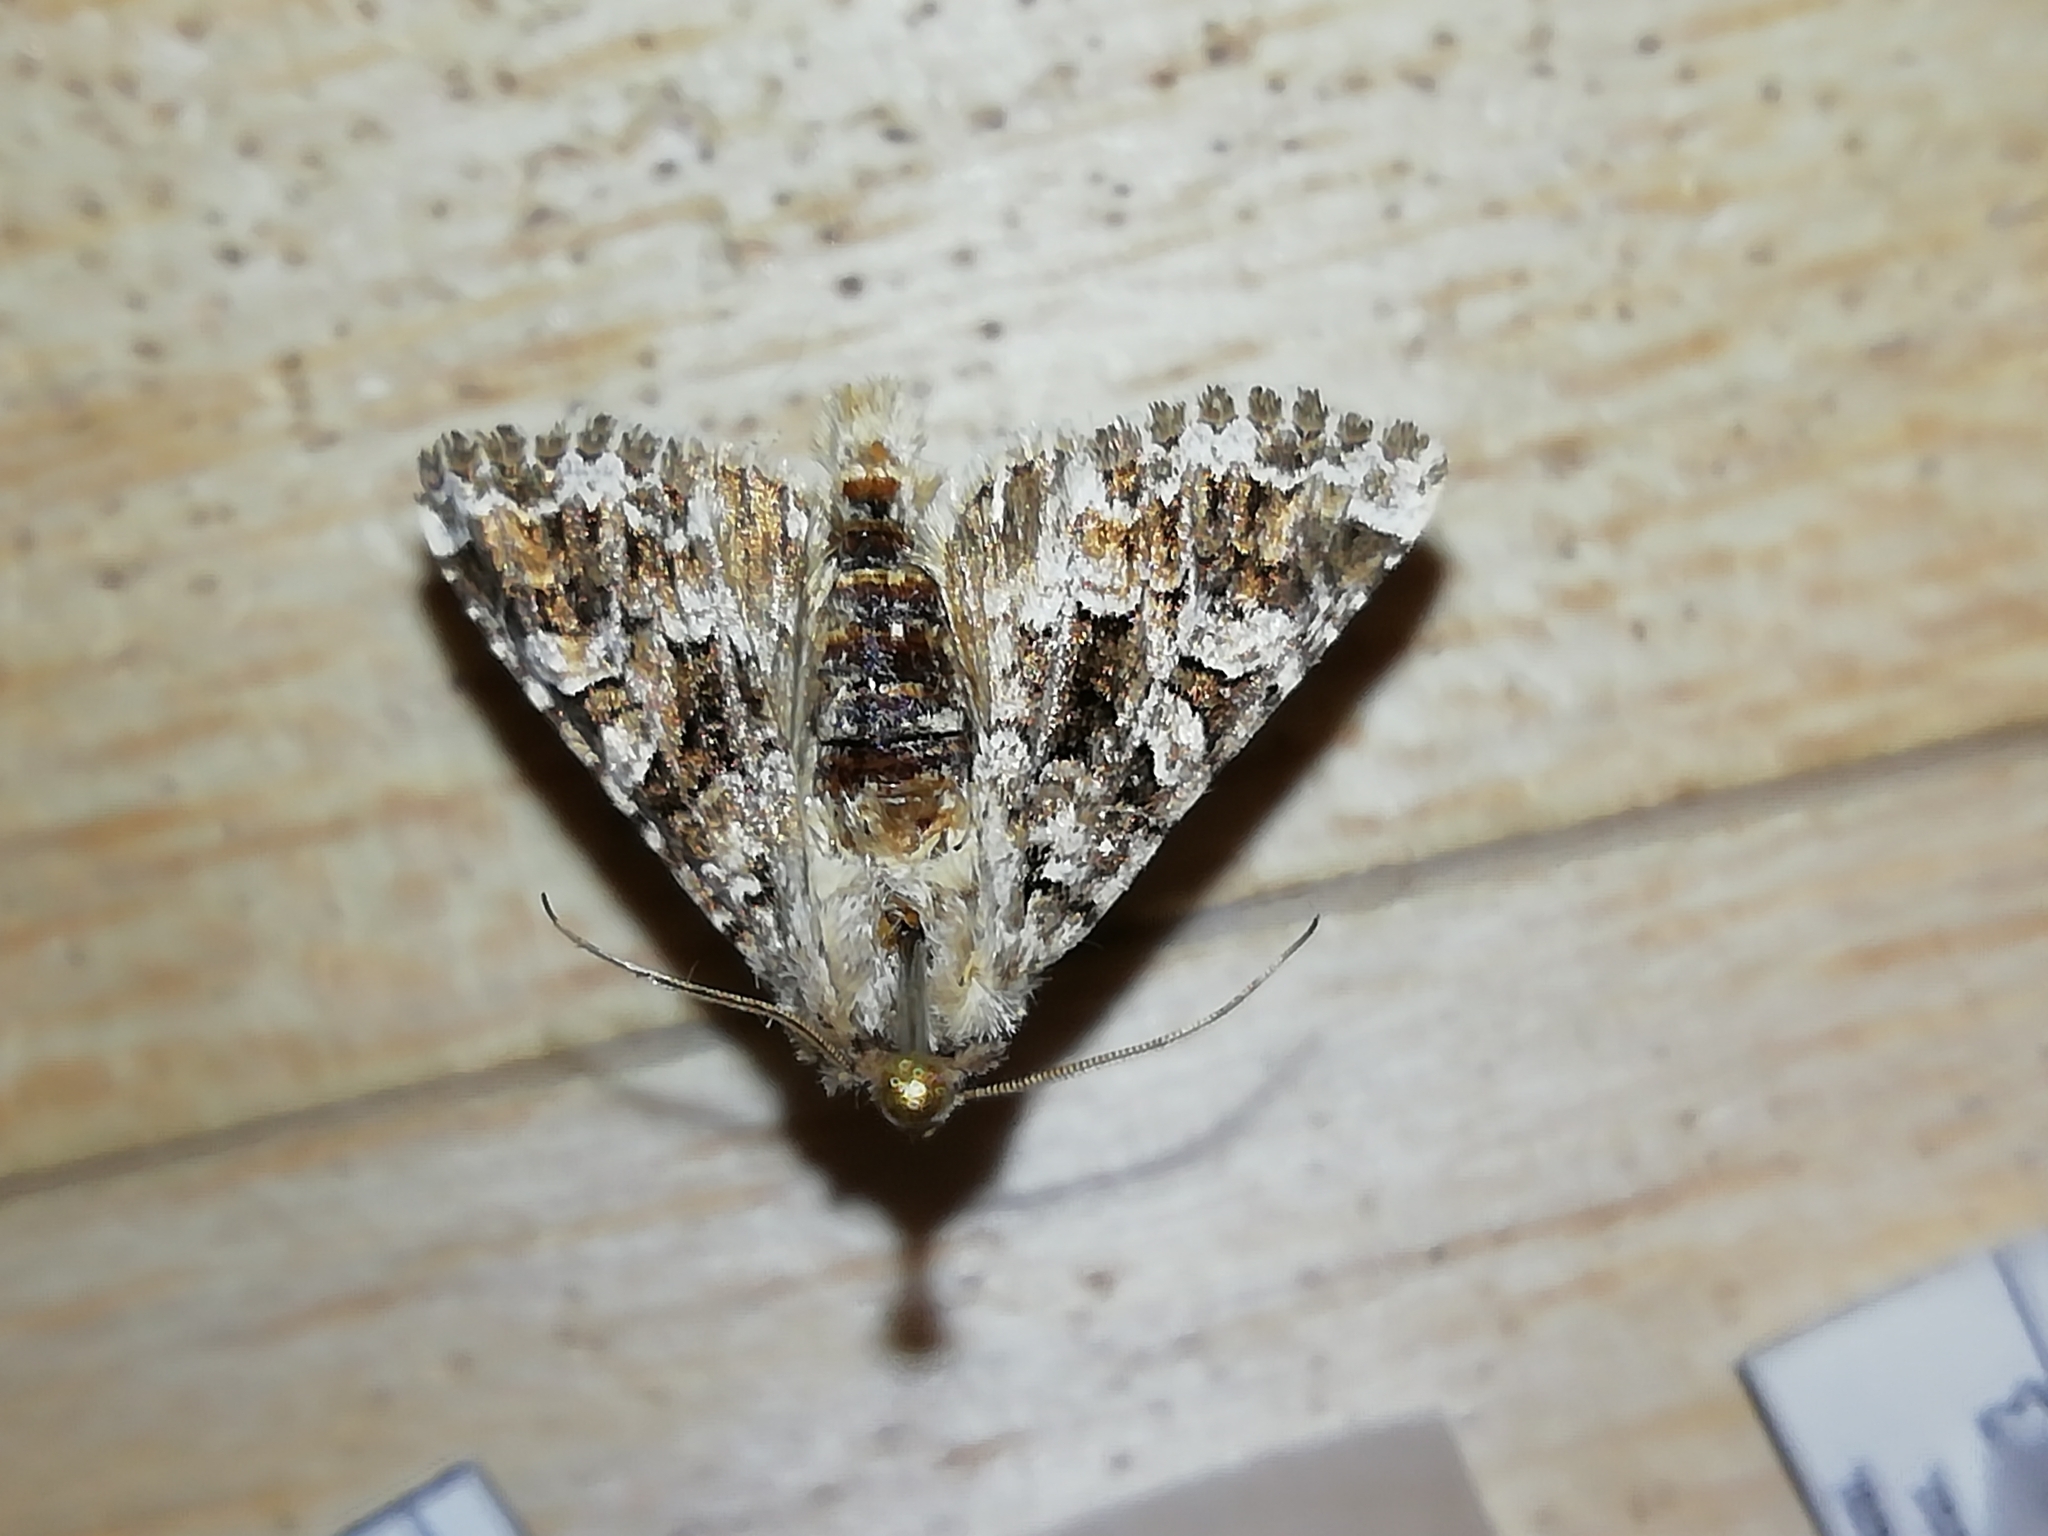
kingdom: Animalia
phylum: Arthropoda
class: Insecta
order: Lepidoptera
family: Noctuidae
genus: Hadena
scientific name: Hadena christophi
